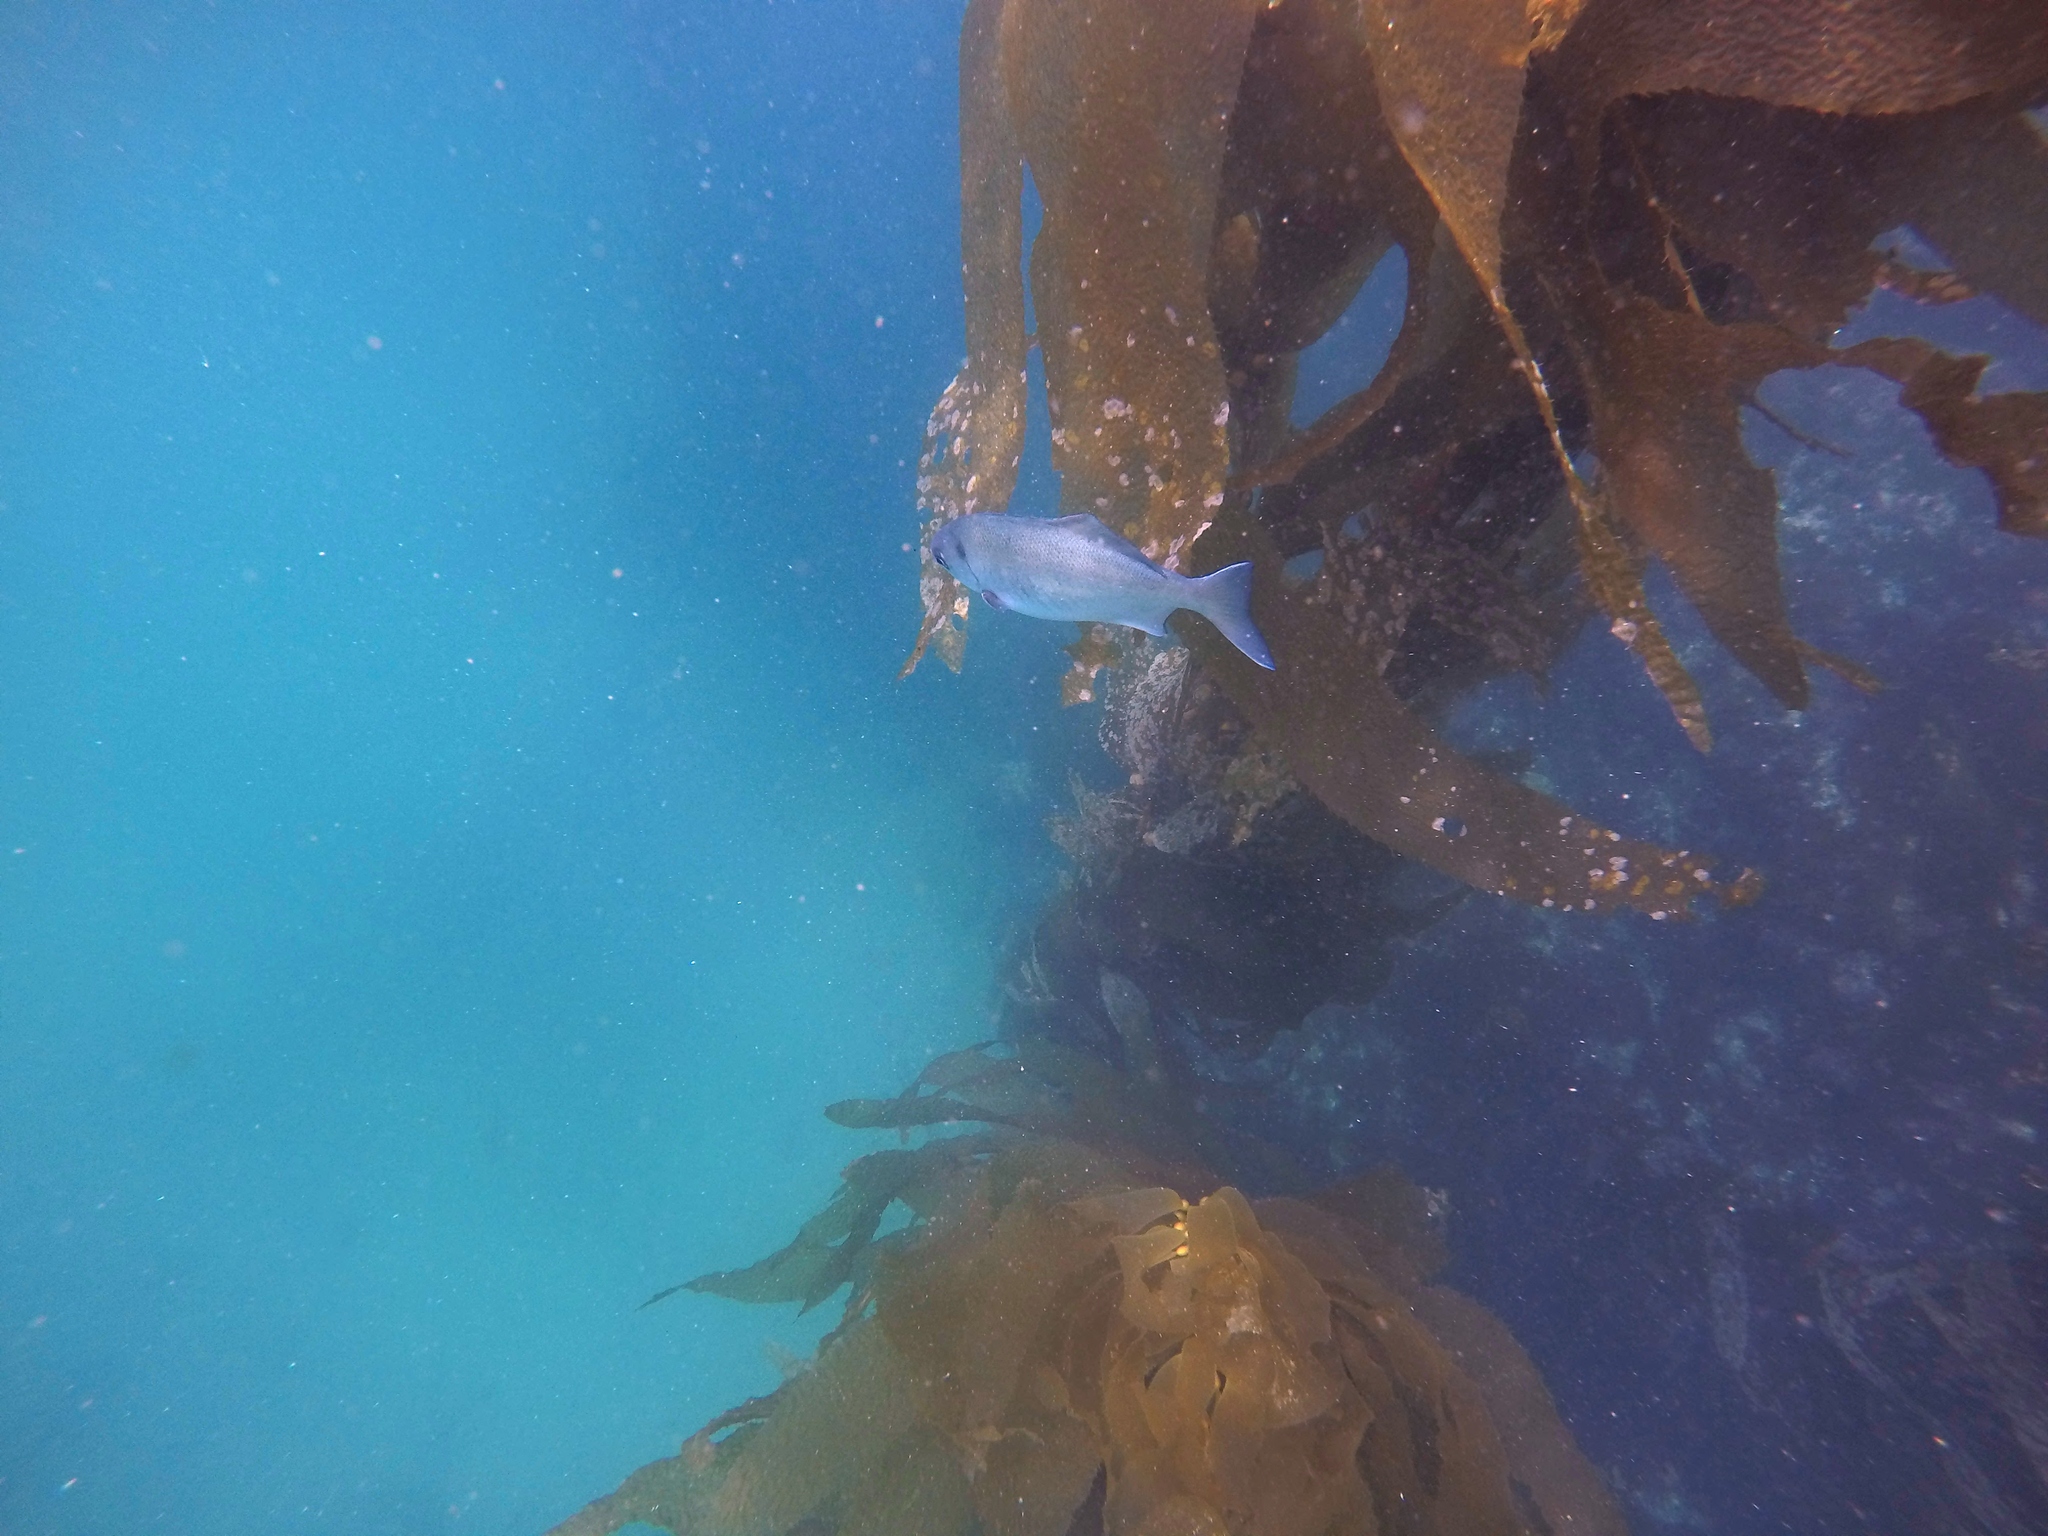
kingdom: Animalia
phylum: Chordata
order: Perciformes
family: Kyphosidae
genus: Medialuna
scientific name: Medialuna californiensis
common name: Halfmoon
